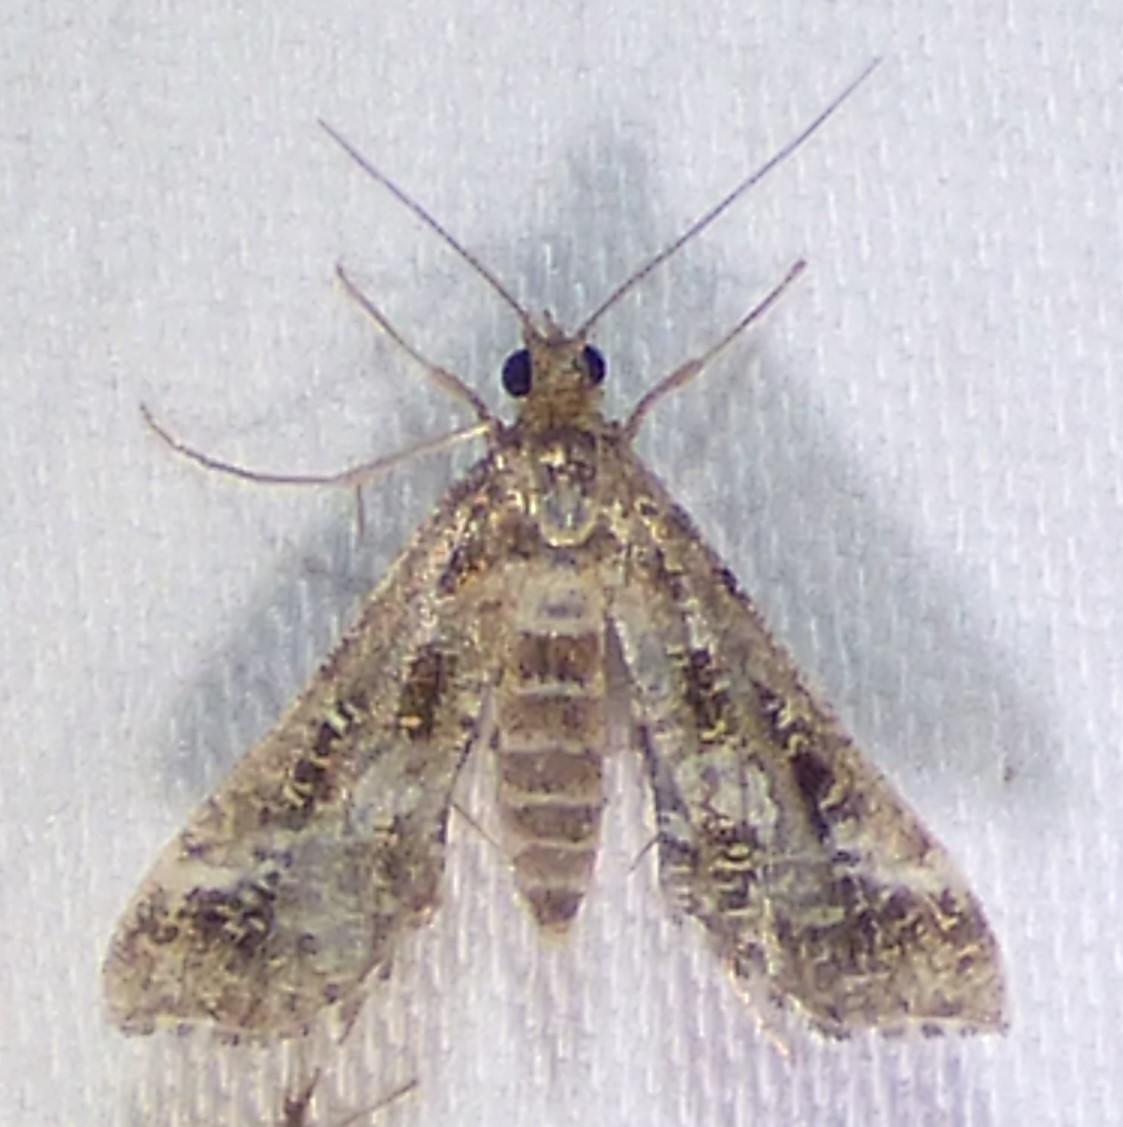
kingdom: Animalia
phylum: Arthropoda
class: Insecta
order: Lepidoptera
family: Crambidae
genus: Diasemiopsis
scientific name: Diasemiopsis ramburialis
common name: Vagrant china-mark
